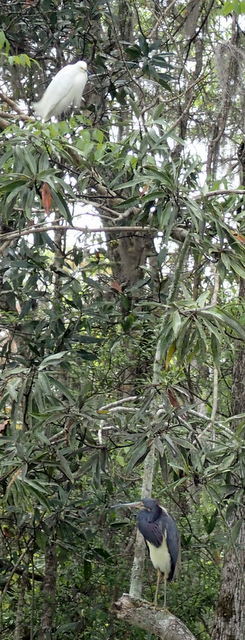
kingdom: Animalia
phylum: Chordata
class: Aves
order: Pelecaniformes
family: Ardeidae
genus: Egretta
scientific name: Egretta tricolor
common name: Tricolored heron
